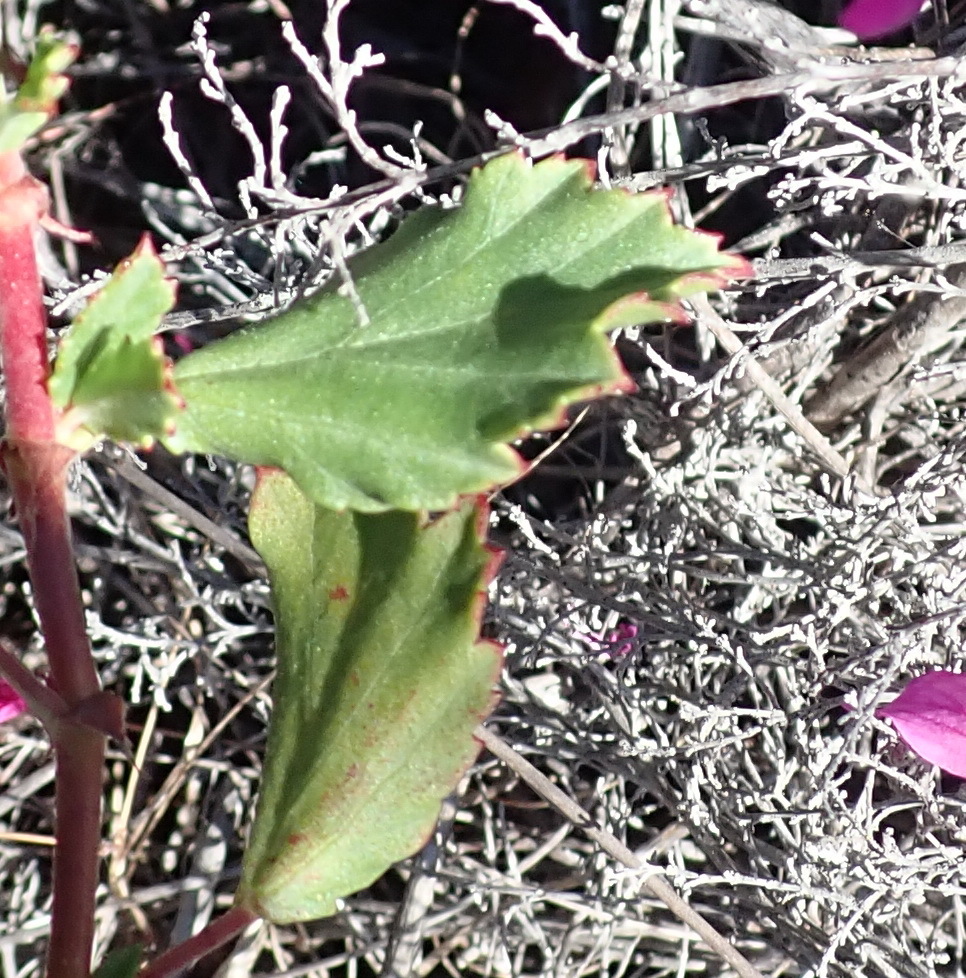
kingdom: Plantae
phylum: Tracheophyta
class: Magnoliopsida
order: Geraniales
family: Geraniaceae
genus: Pelargonium
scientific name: Pelargonium betulinum
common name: Birch-leaf pelargonium
